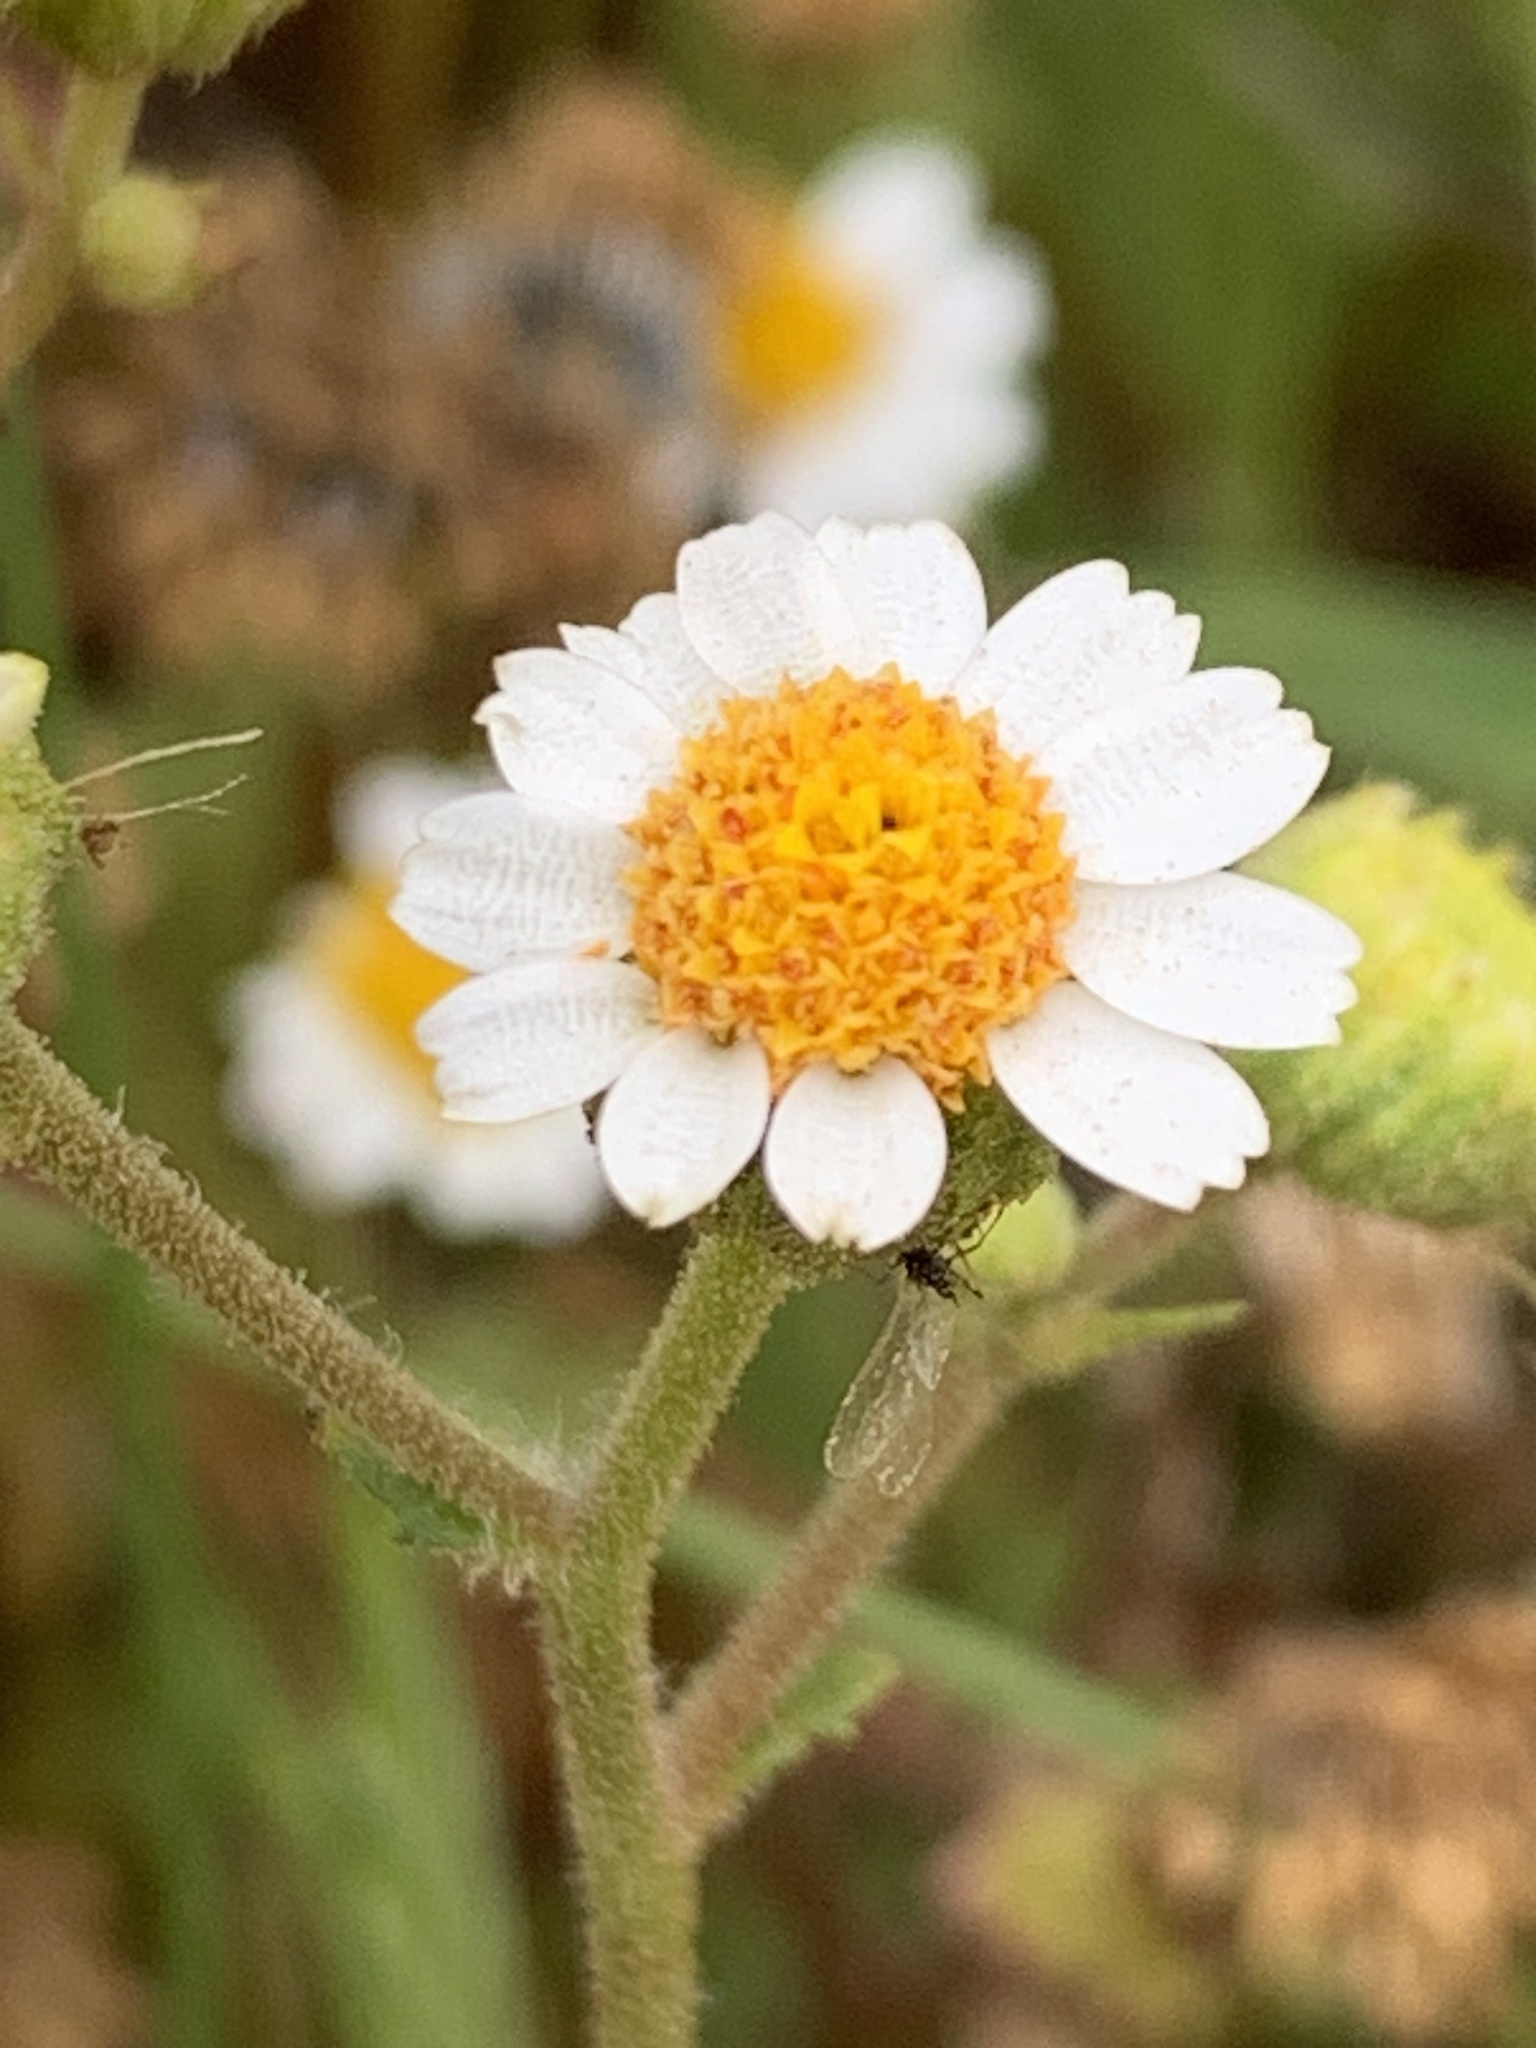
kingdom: Plantae
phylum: Tracheophyta
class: Magnoliopsida
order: Asterales
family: Asteraceae
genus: Laphamia
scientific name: Laphamia emoryi
